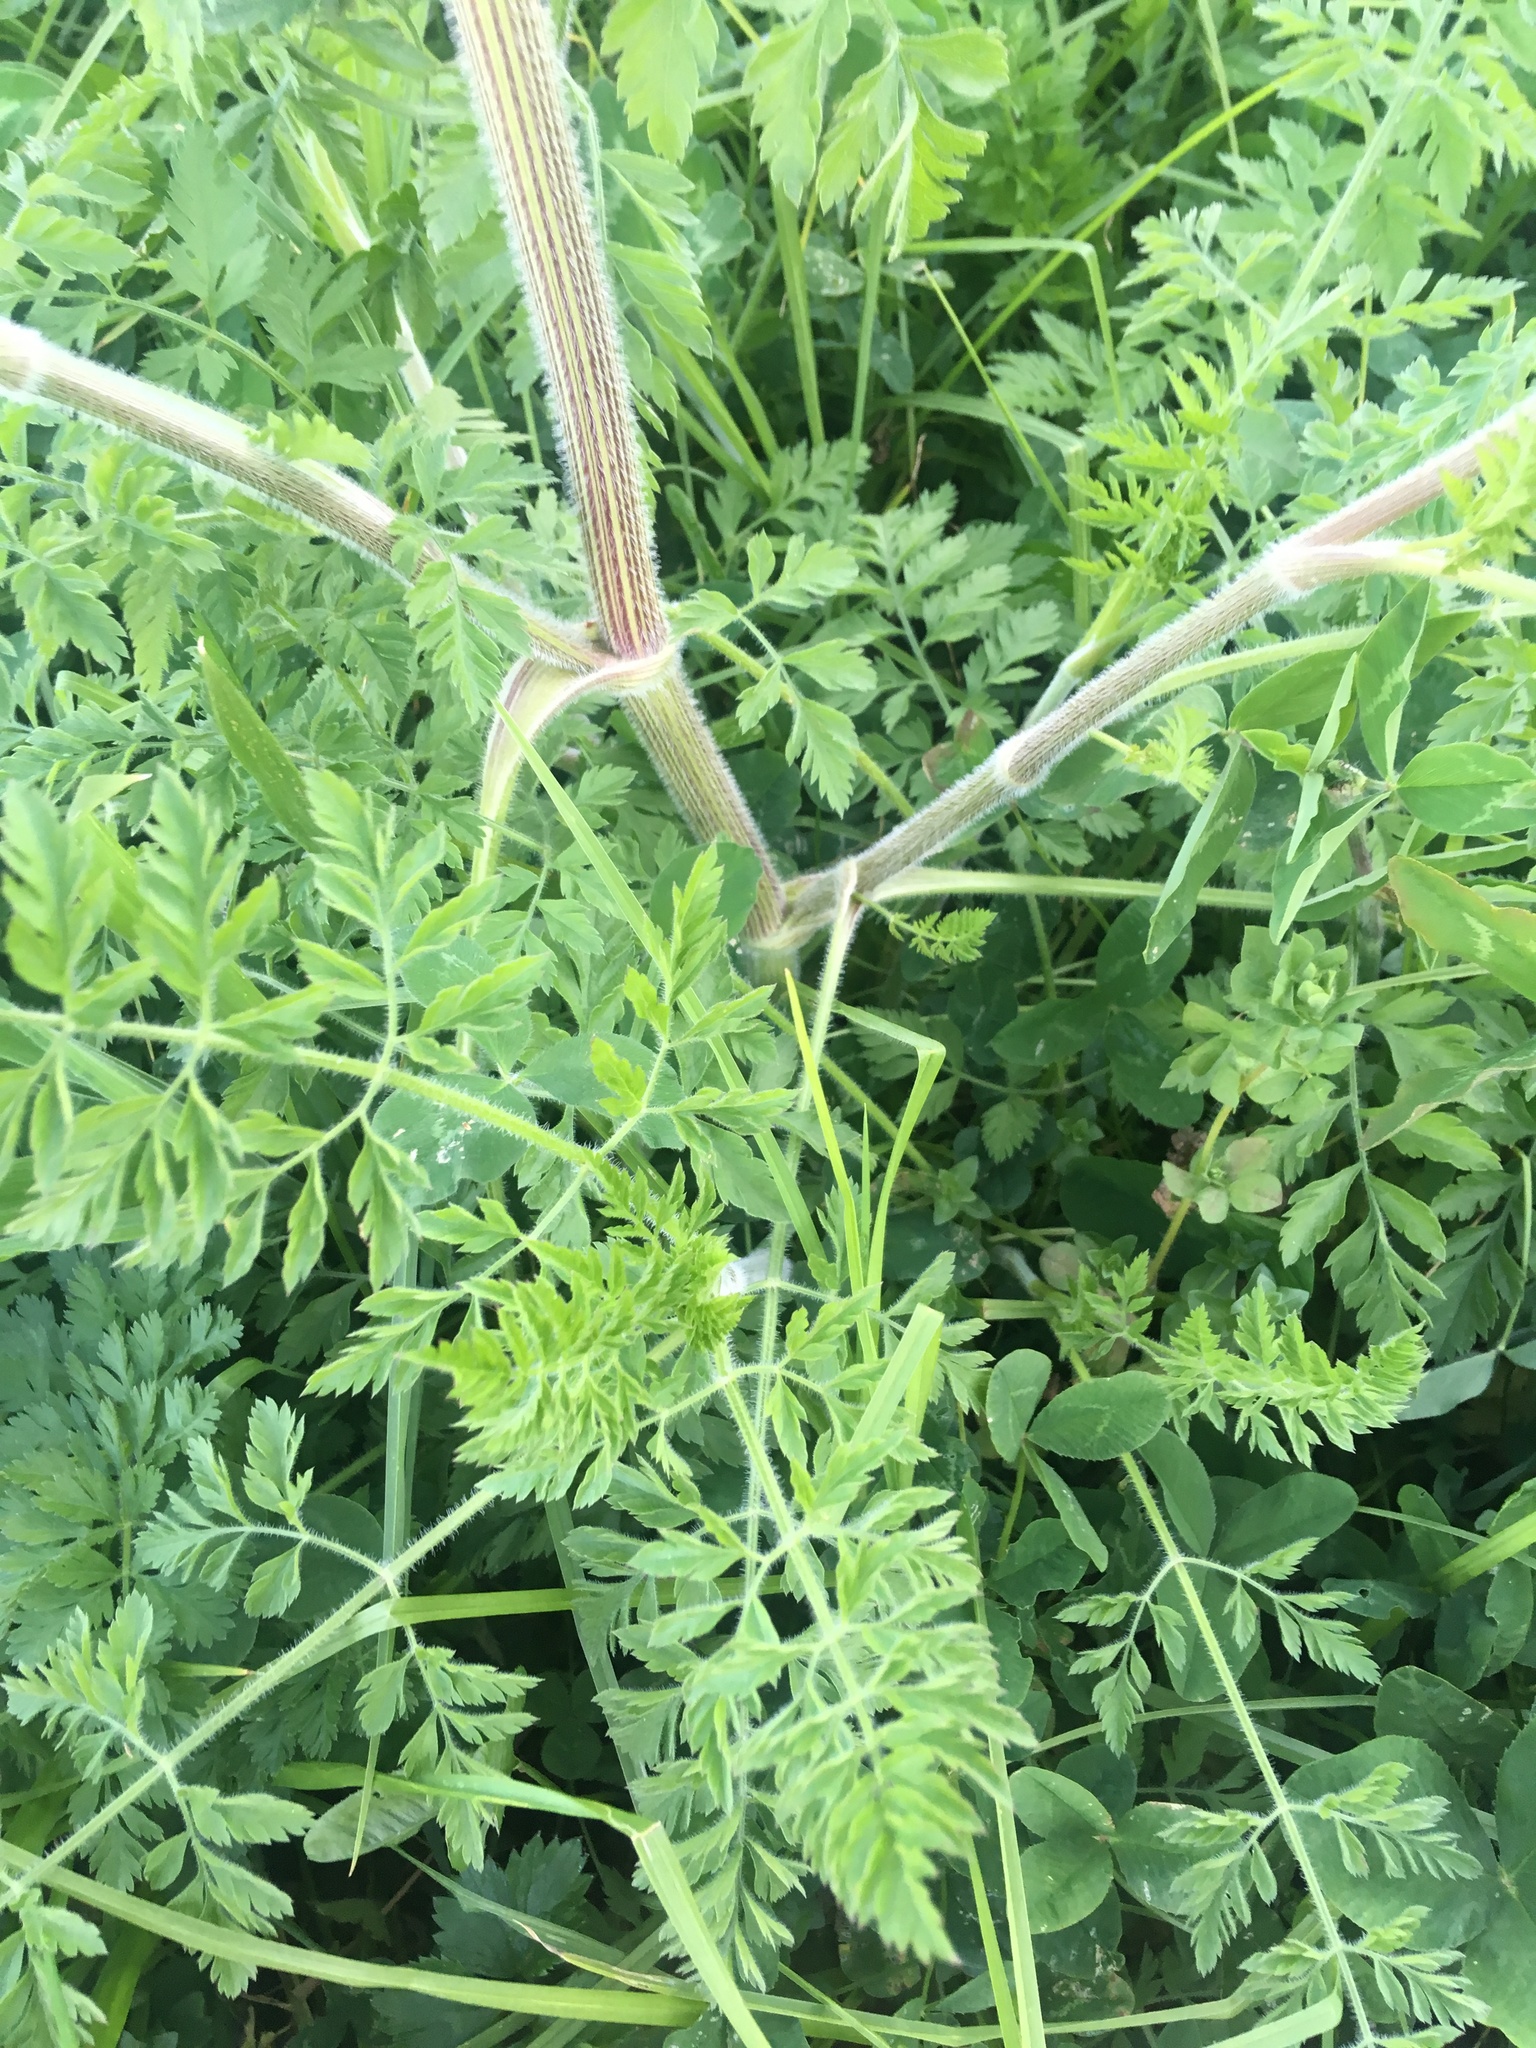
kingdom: Plantae
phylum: Tracheophyta
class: Magnoliopsida
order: Apiales
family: Apiaceae
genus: Daucus
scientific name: Daucus carota
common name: Wild carrot
